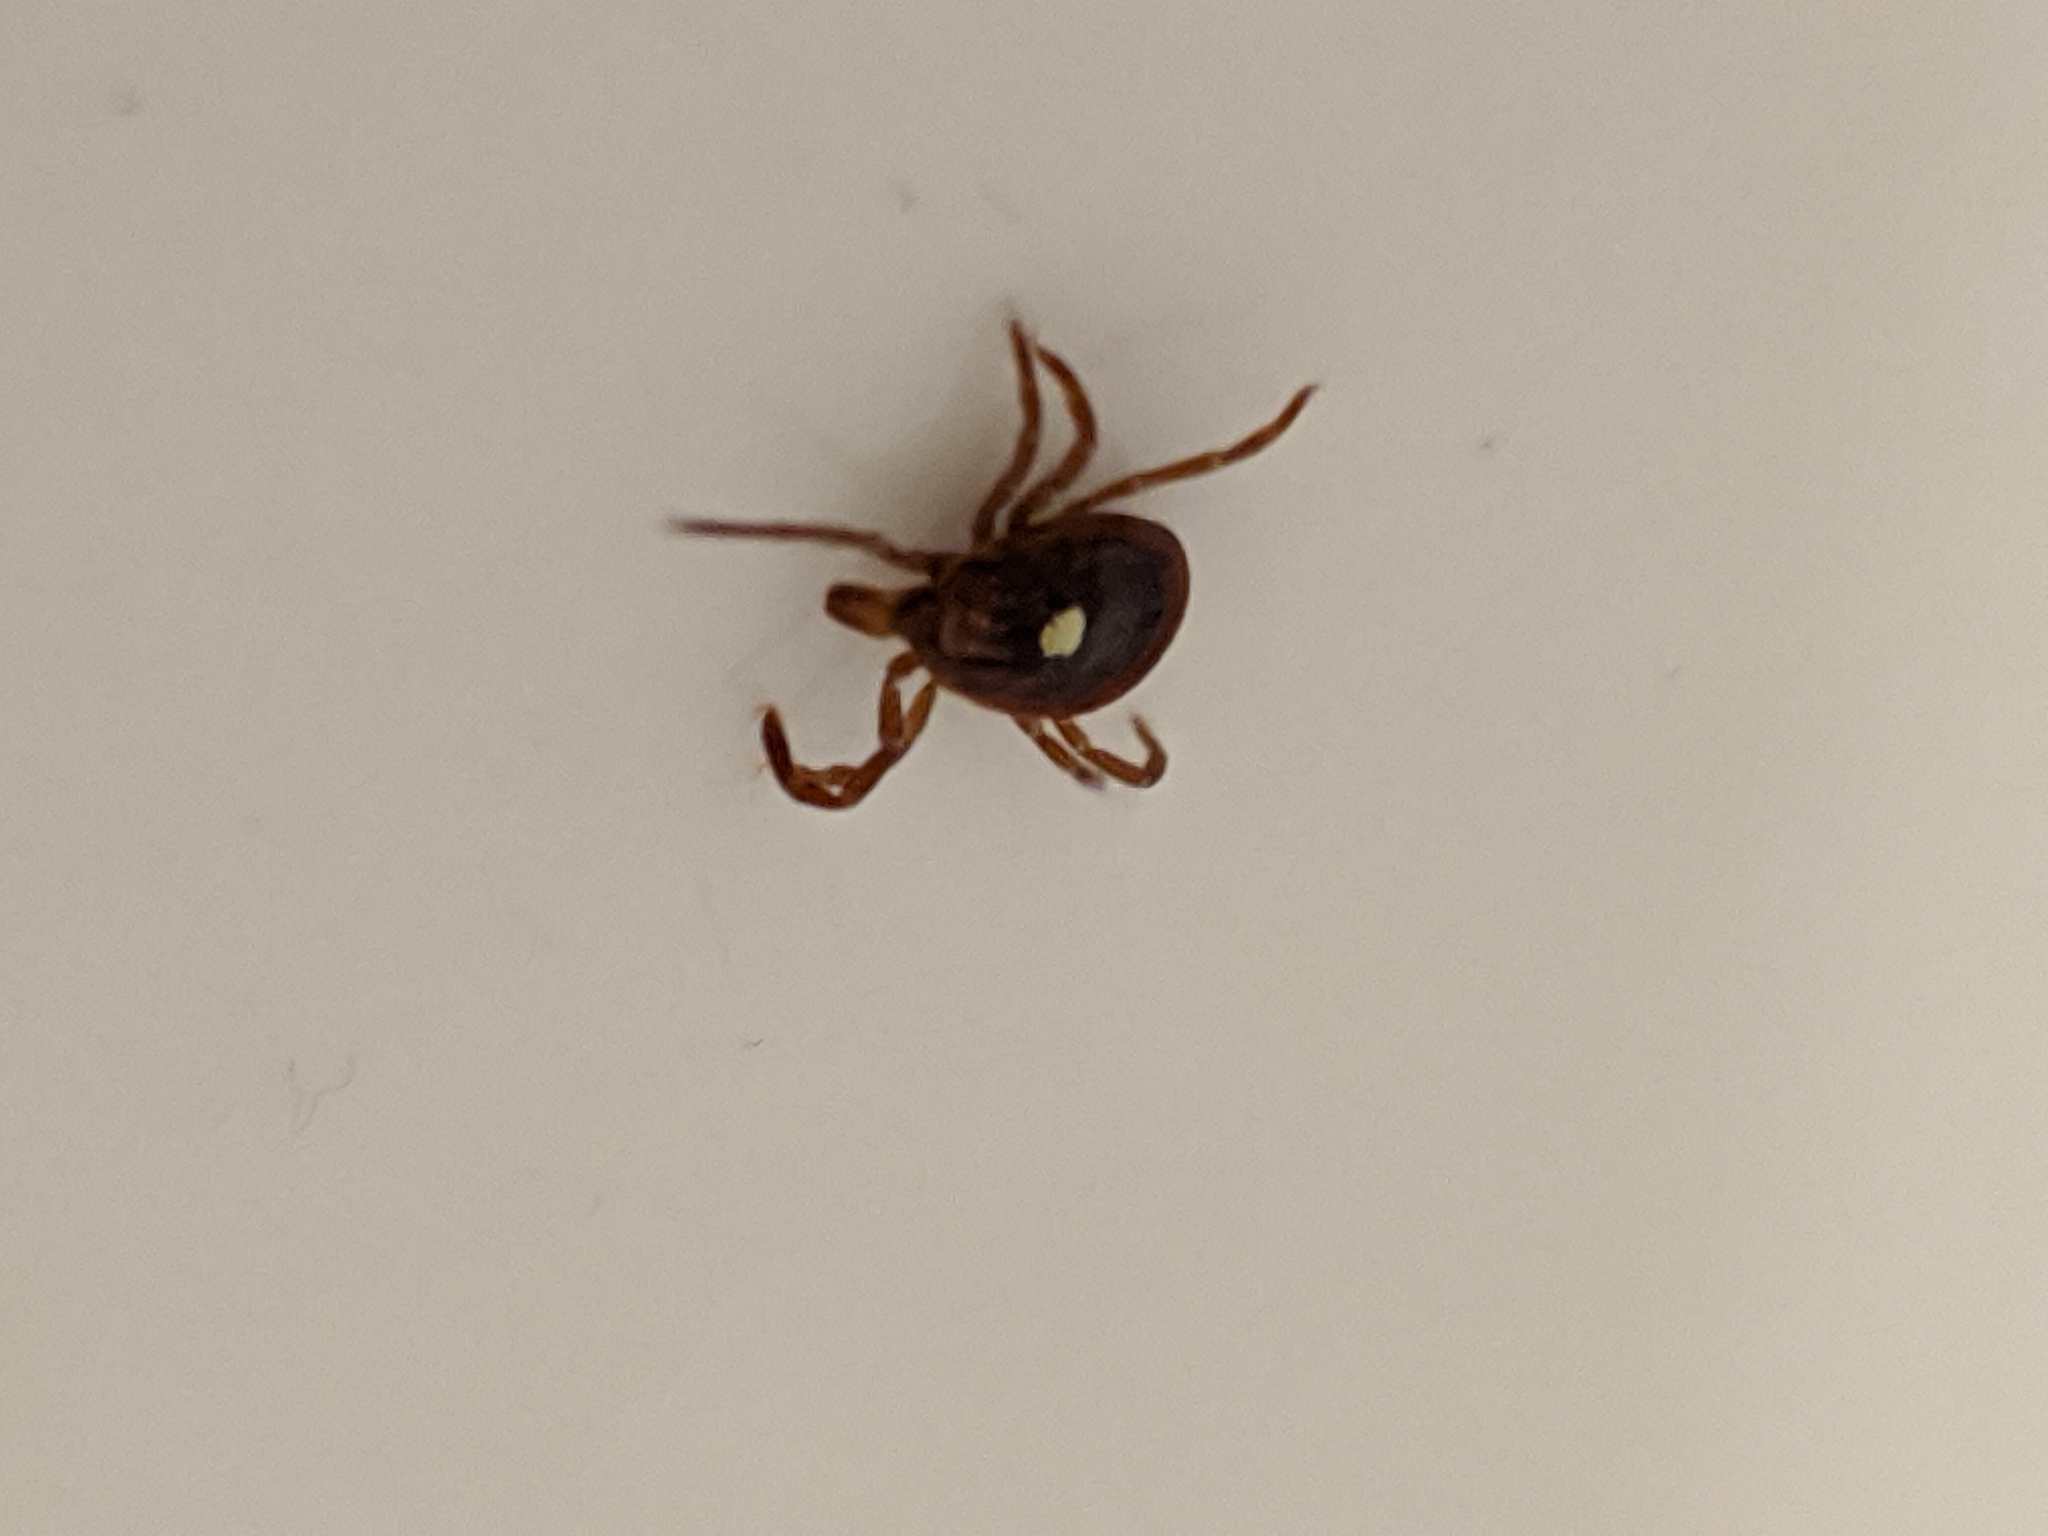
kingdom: Animalia
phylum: Arthropoda
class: Arachnida
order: Ixodida
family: Ixodidae
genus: Amblyomma
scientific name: Amblyomma americanum
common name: Lone star tick
